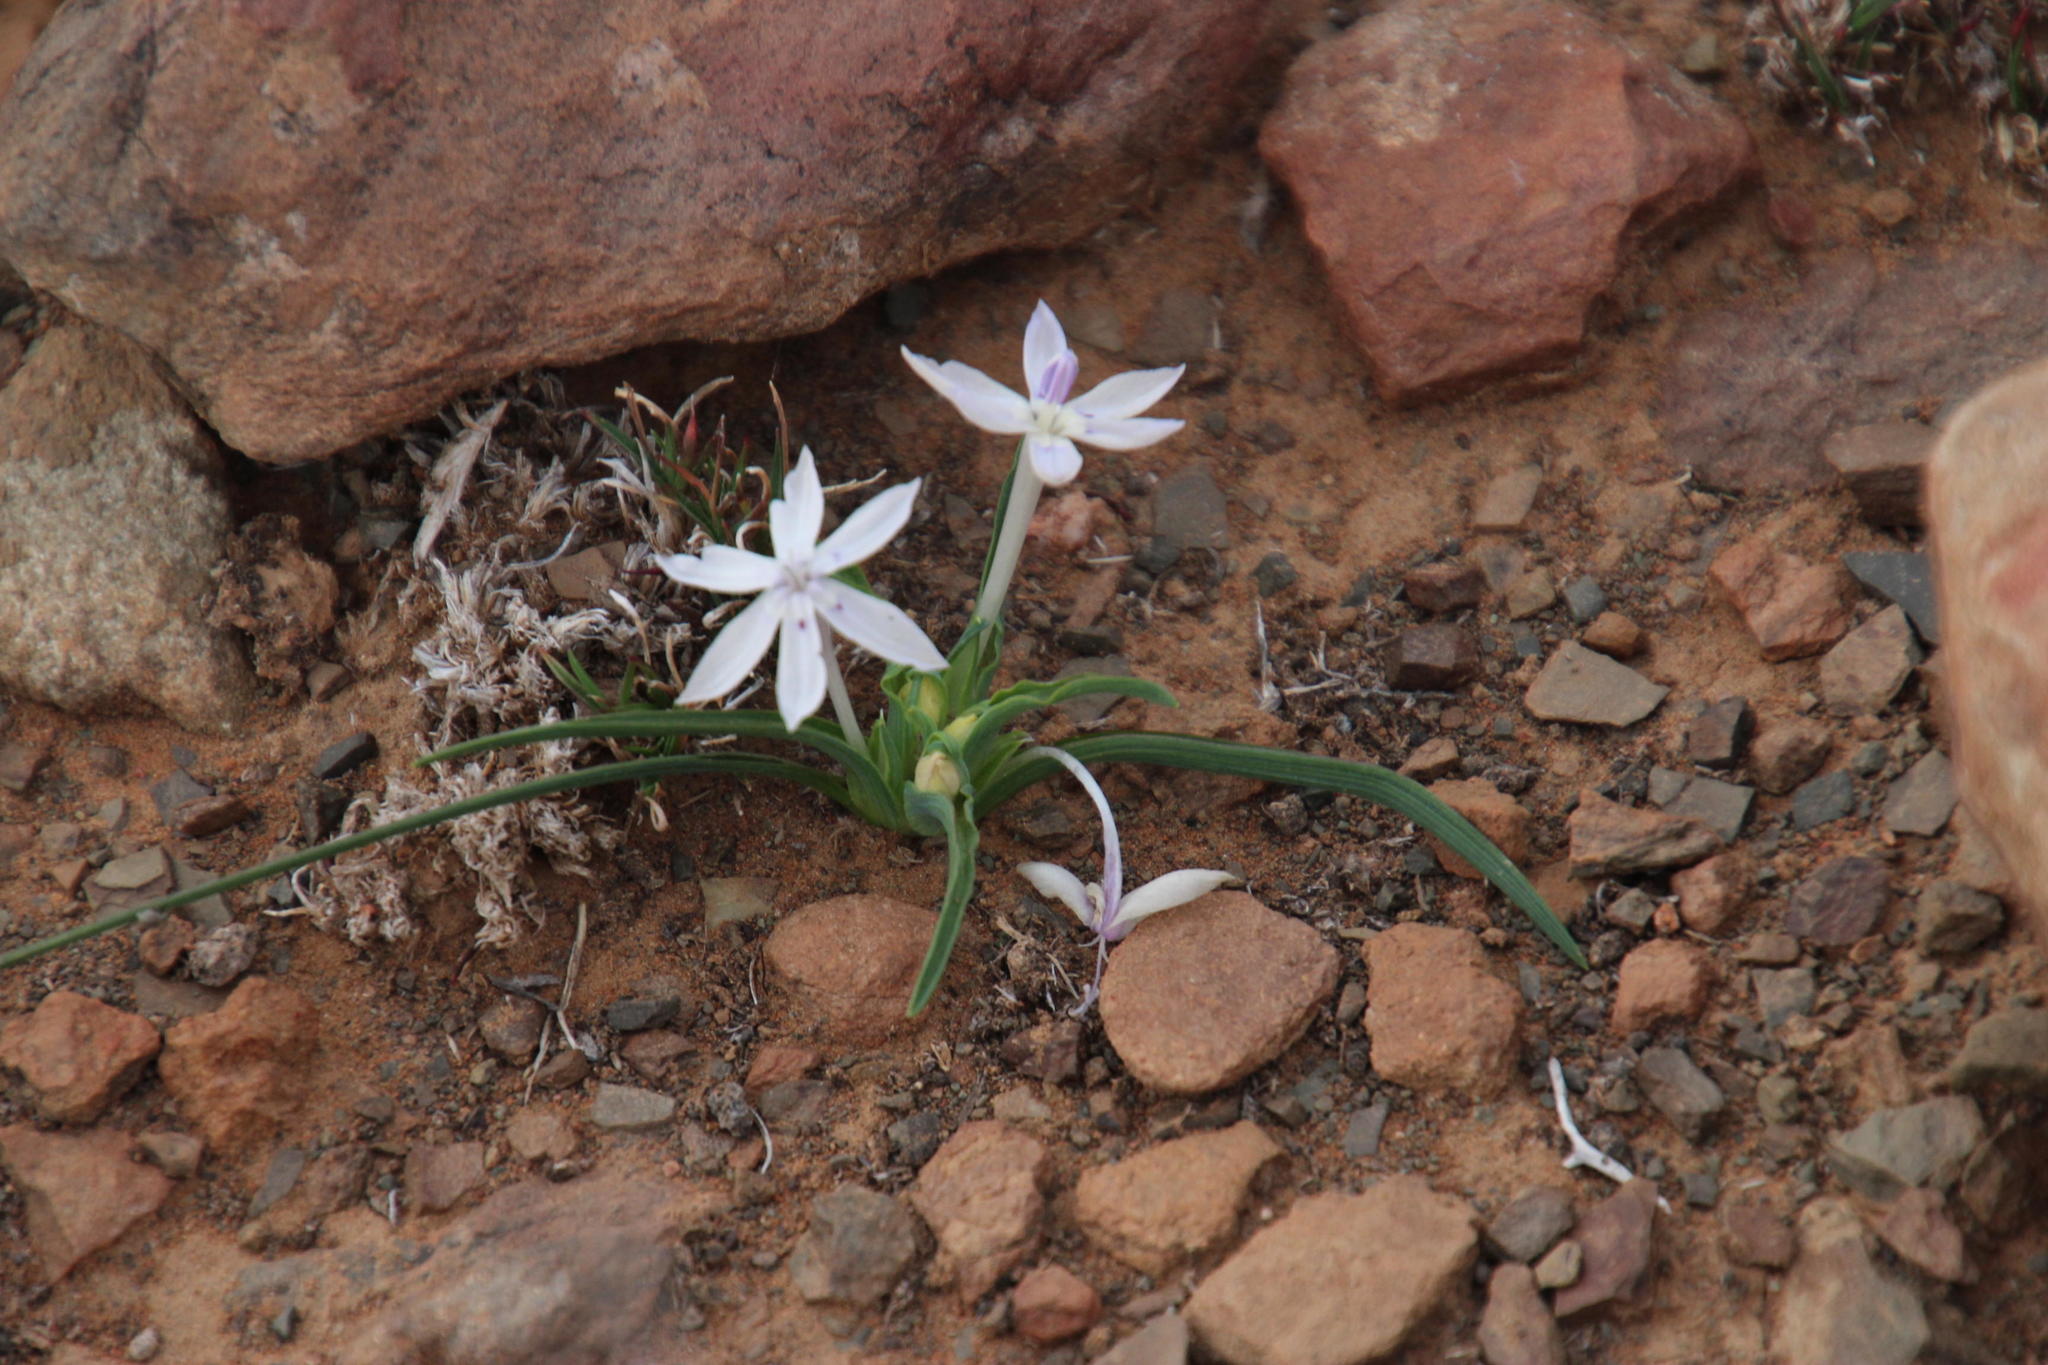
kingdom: Plantae
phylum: Tracheophyta
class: Liliopsida
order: Asparagales
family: Iridaceae
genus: Lapeirousia
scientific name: Lapeirousia plicata
